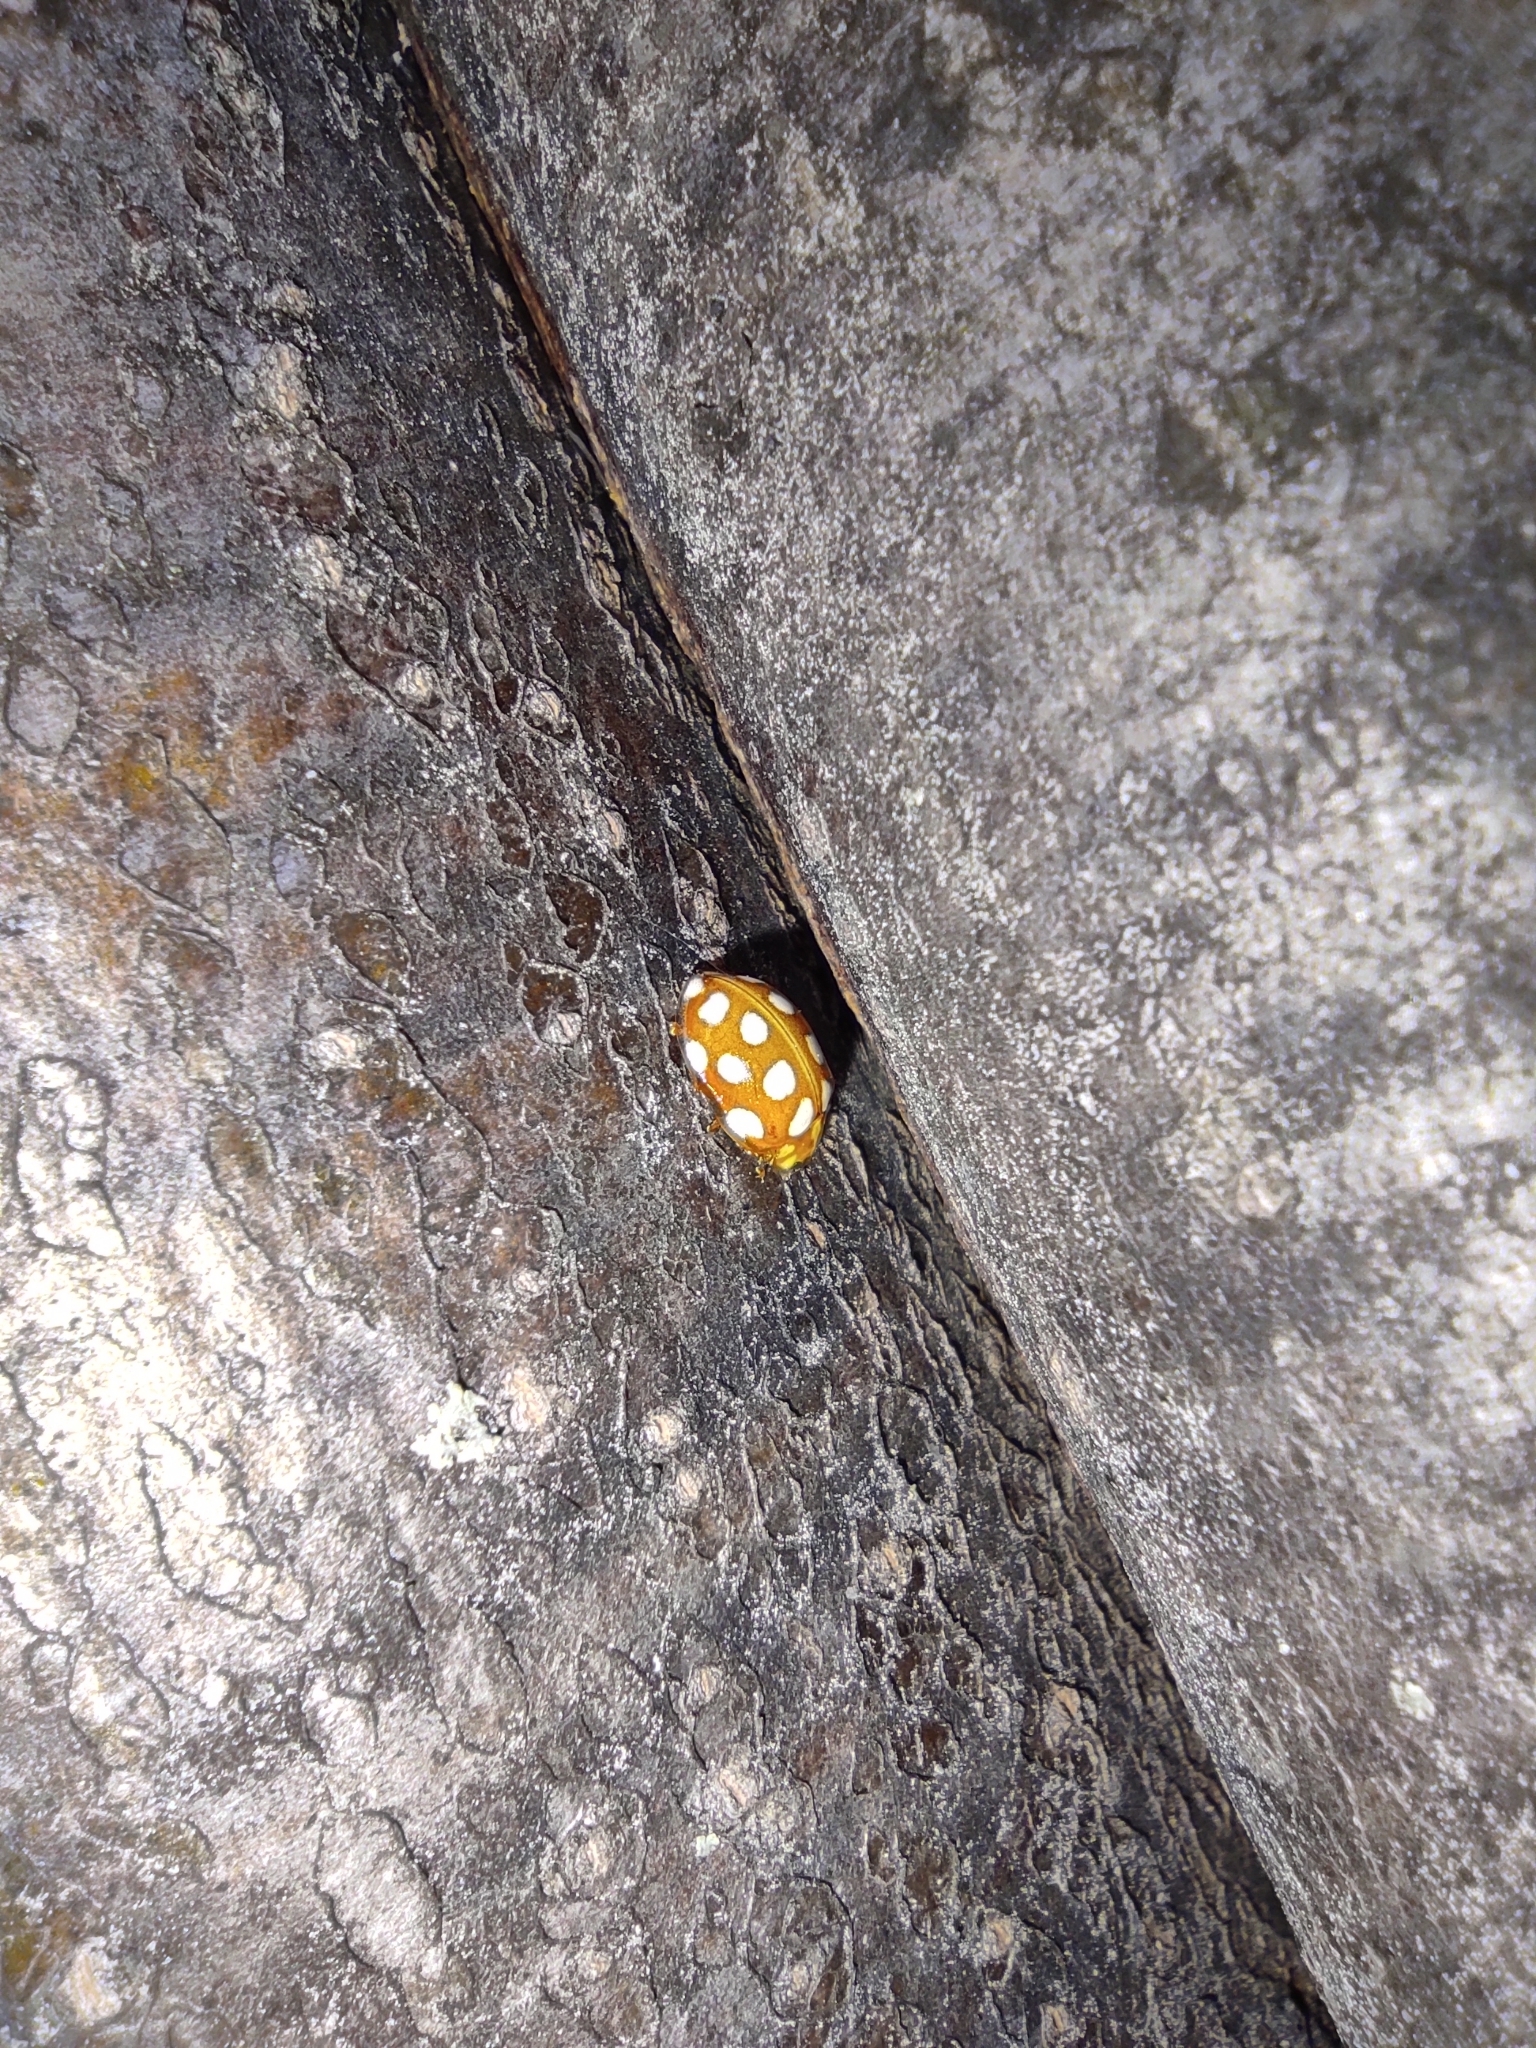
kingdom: Animalia
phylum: Arthropoda
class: Insecta
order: Coleoptera
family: Coccinellidae
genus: Halyzia
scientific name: Halyzia sedecimguttata
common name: Orange ladybird
